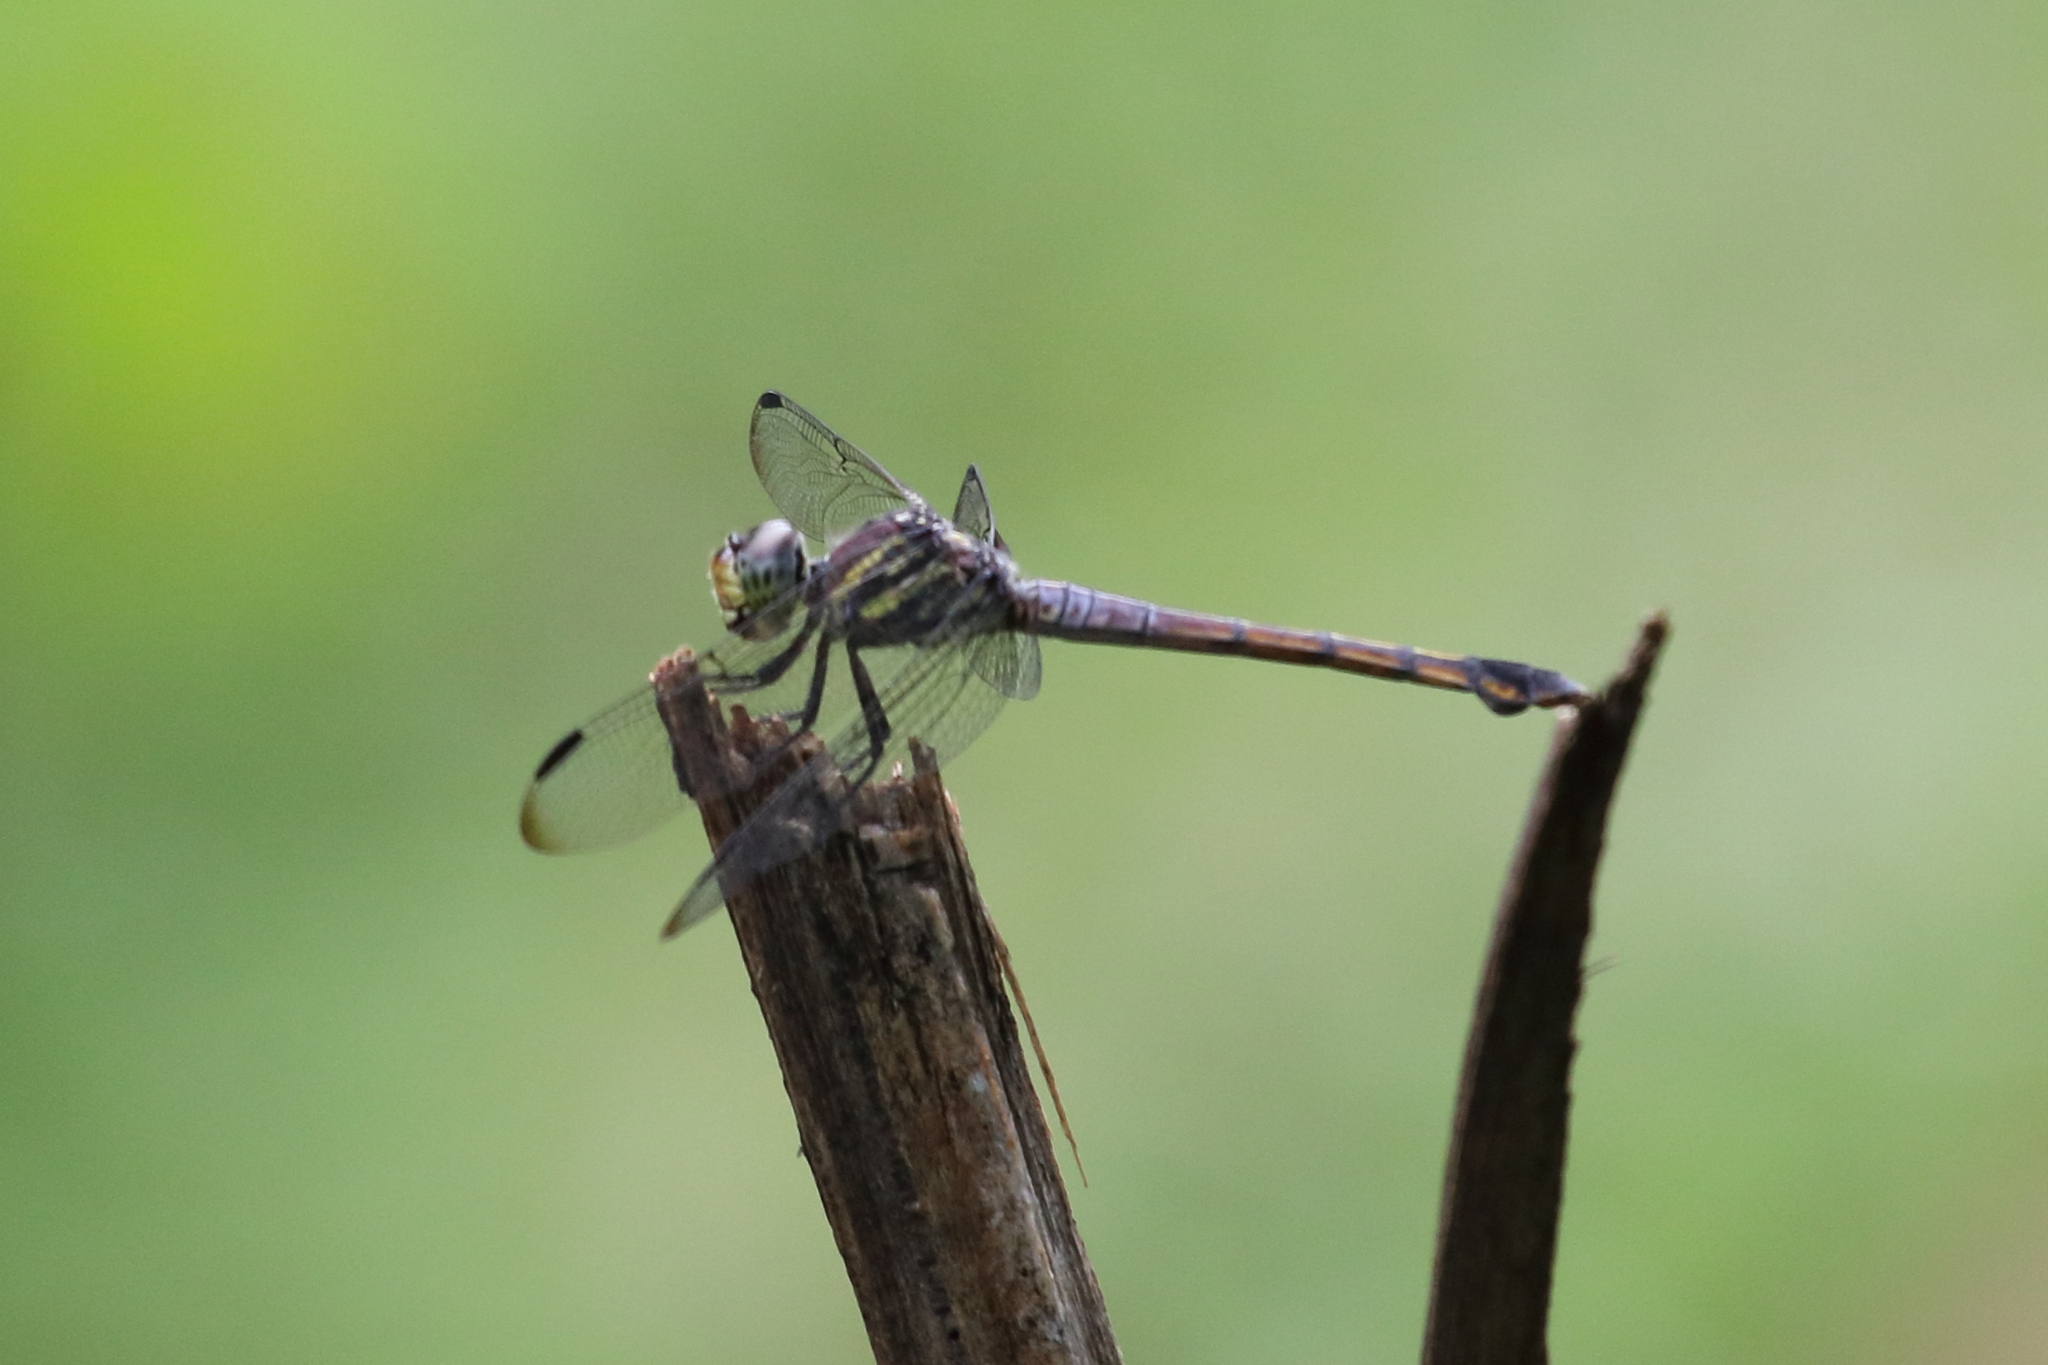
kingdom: Animalia
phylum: Arthropoda
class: Insecta
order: Odonata
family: Libellulidae
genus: Potamarcha
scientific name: Potamarcha congener
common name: Blue chaser
